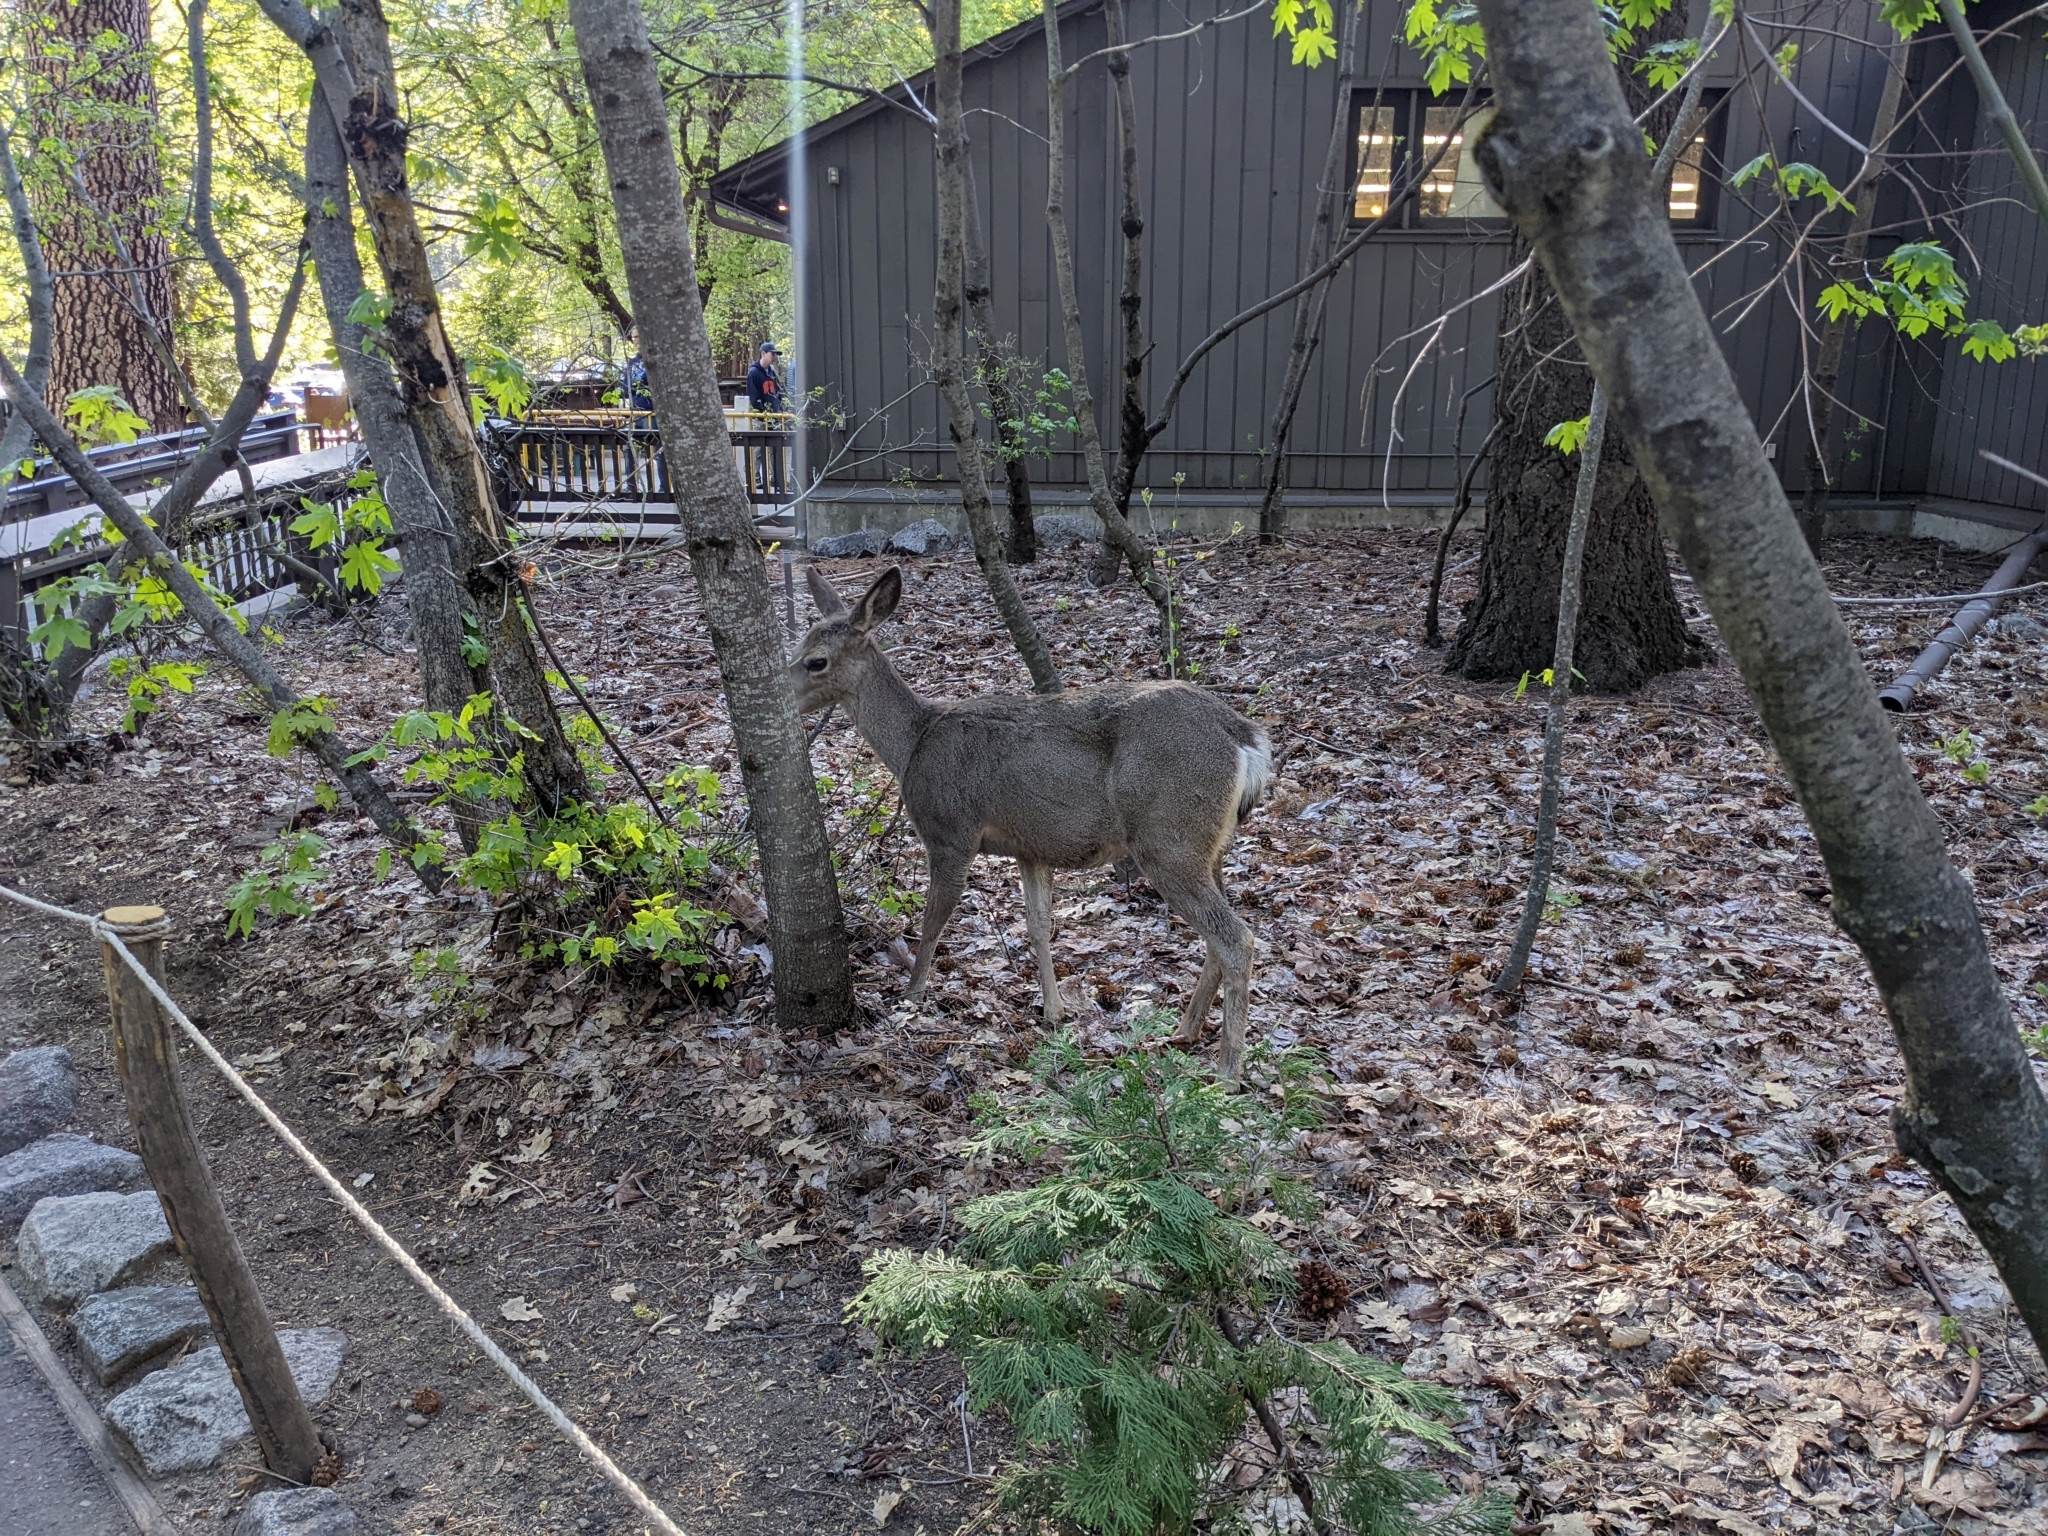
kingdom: Animalia
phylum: Chordata
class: Mammalia
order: Artiodactyla
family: Cervidae
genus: Odocoileus
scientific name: Odocoileus hemionus
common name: Mule deer
